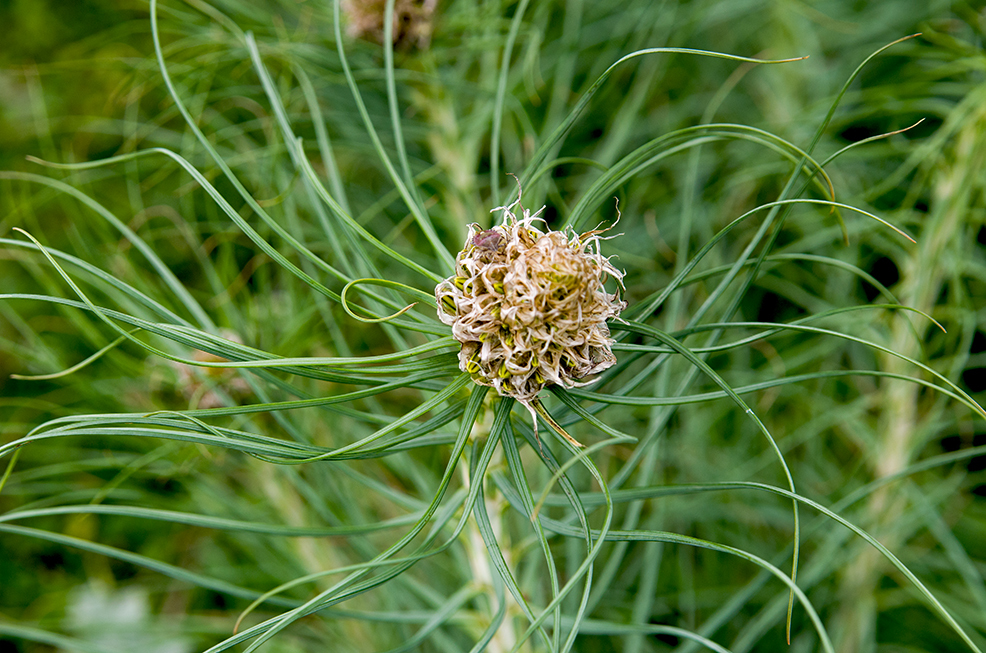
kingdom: Plantae
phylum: Tracheophyta
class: Liliopsida
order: Asparagales
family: Asphodelaceae
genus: Asphodeline
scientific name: Asphodeline lutea
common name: Yellow asphodel
